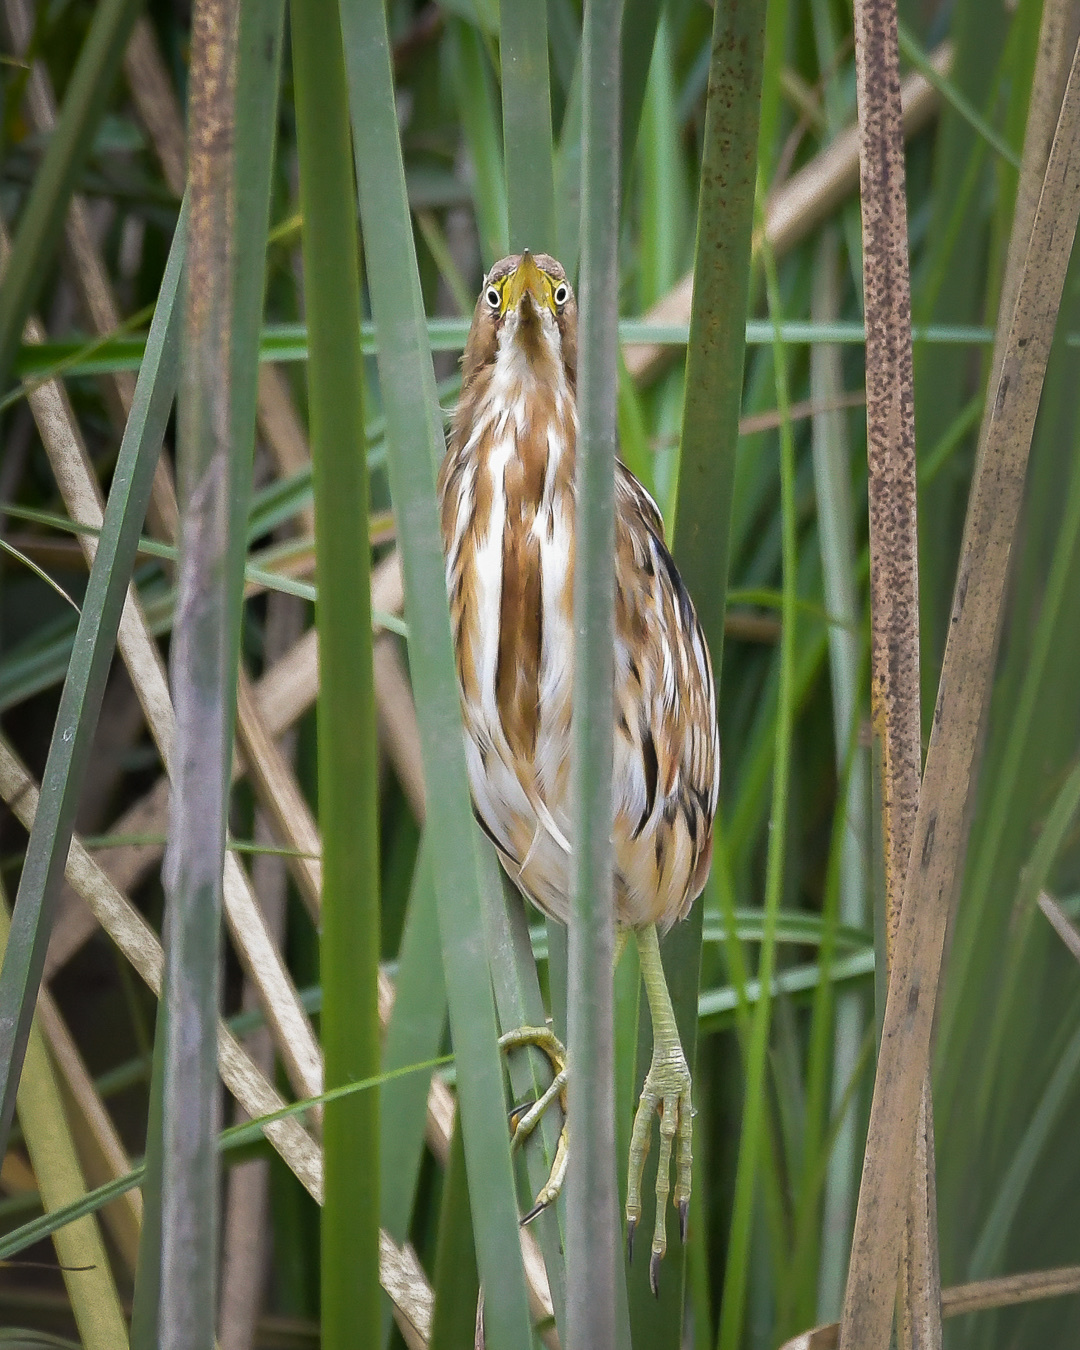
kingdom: Animalia
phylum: Chordata
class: Aves
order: Pelecaniformes
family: Ardeidae
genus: Ixobrychus
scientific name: Ixobrychus involucris
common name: Stripe-backed bittern
